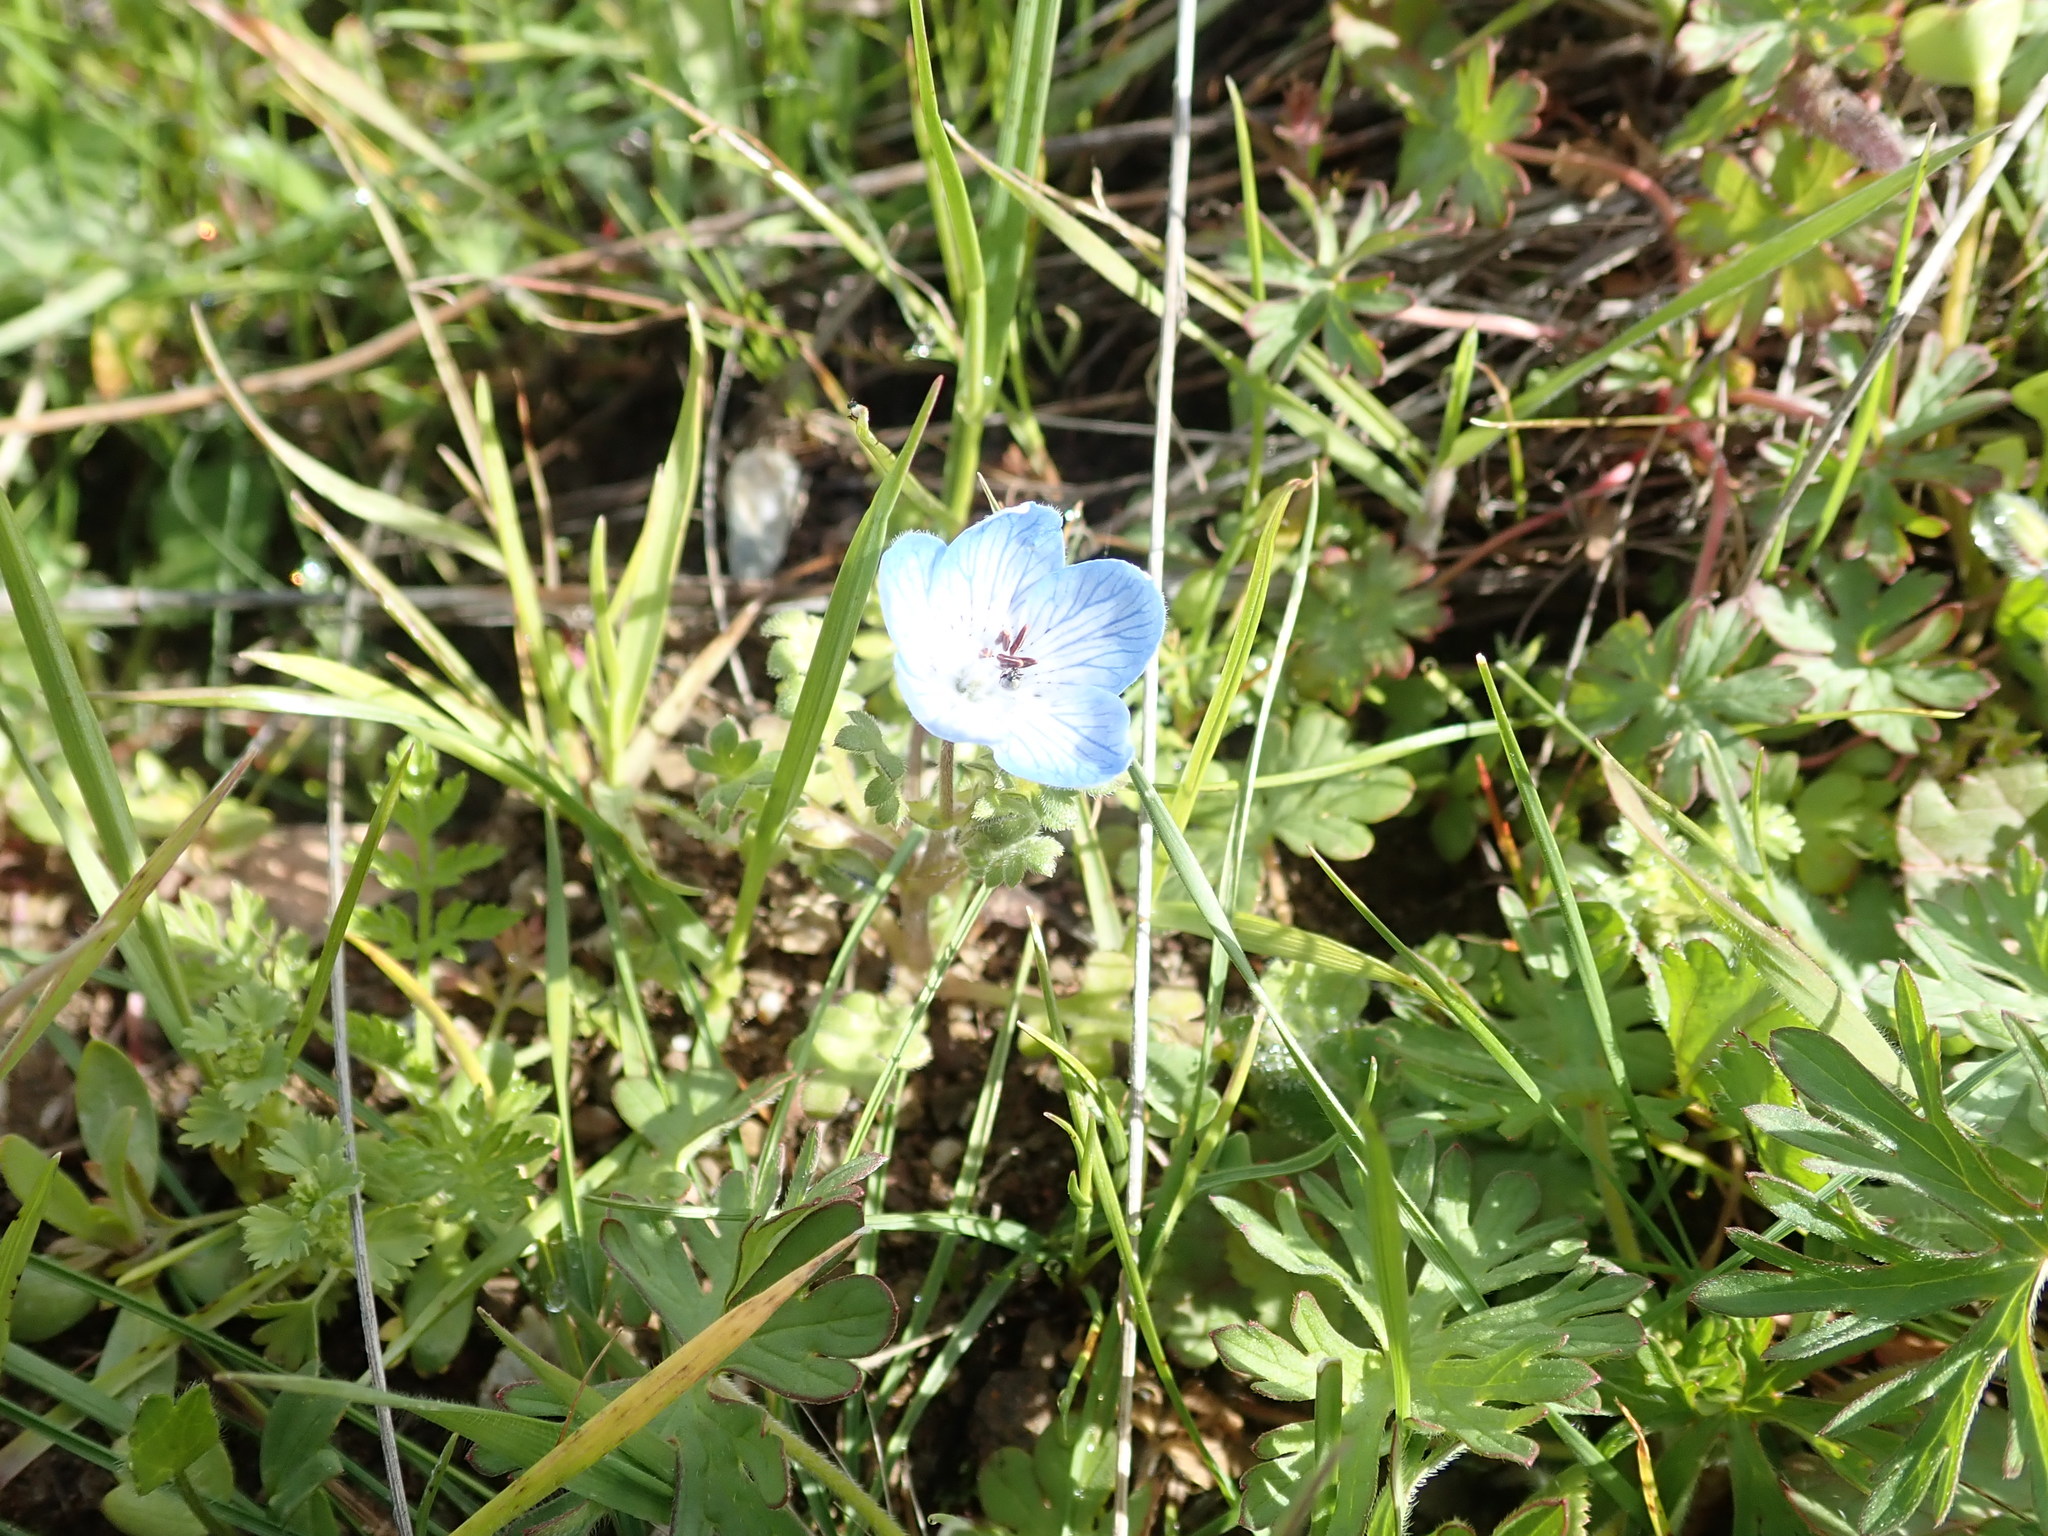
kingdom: Plantae
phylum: Tracheophyta
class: Magnoliopsida
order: Boraginales
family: Hydrophyllaceae
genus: Nemophila
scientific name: Nemophila menziesii
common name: Baby's-blue-eyes
